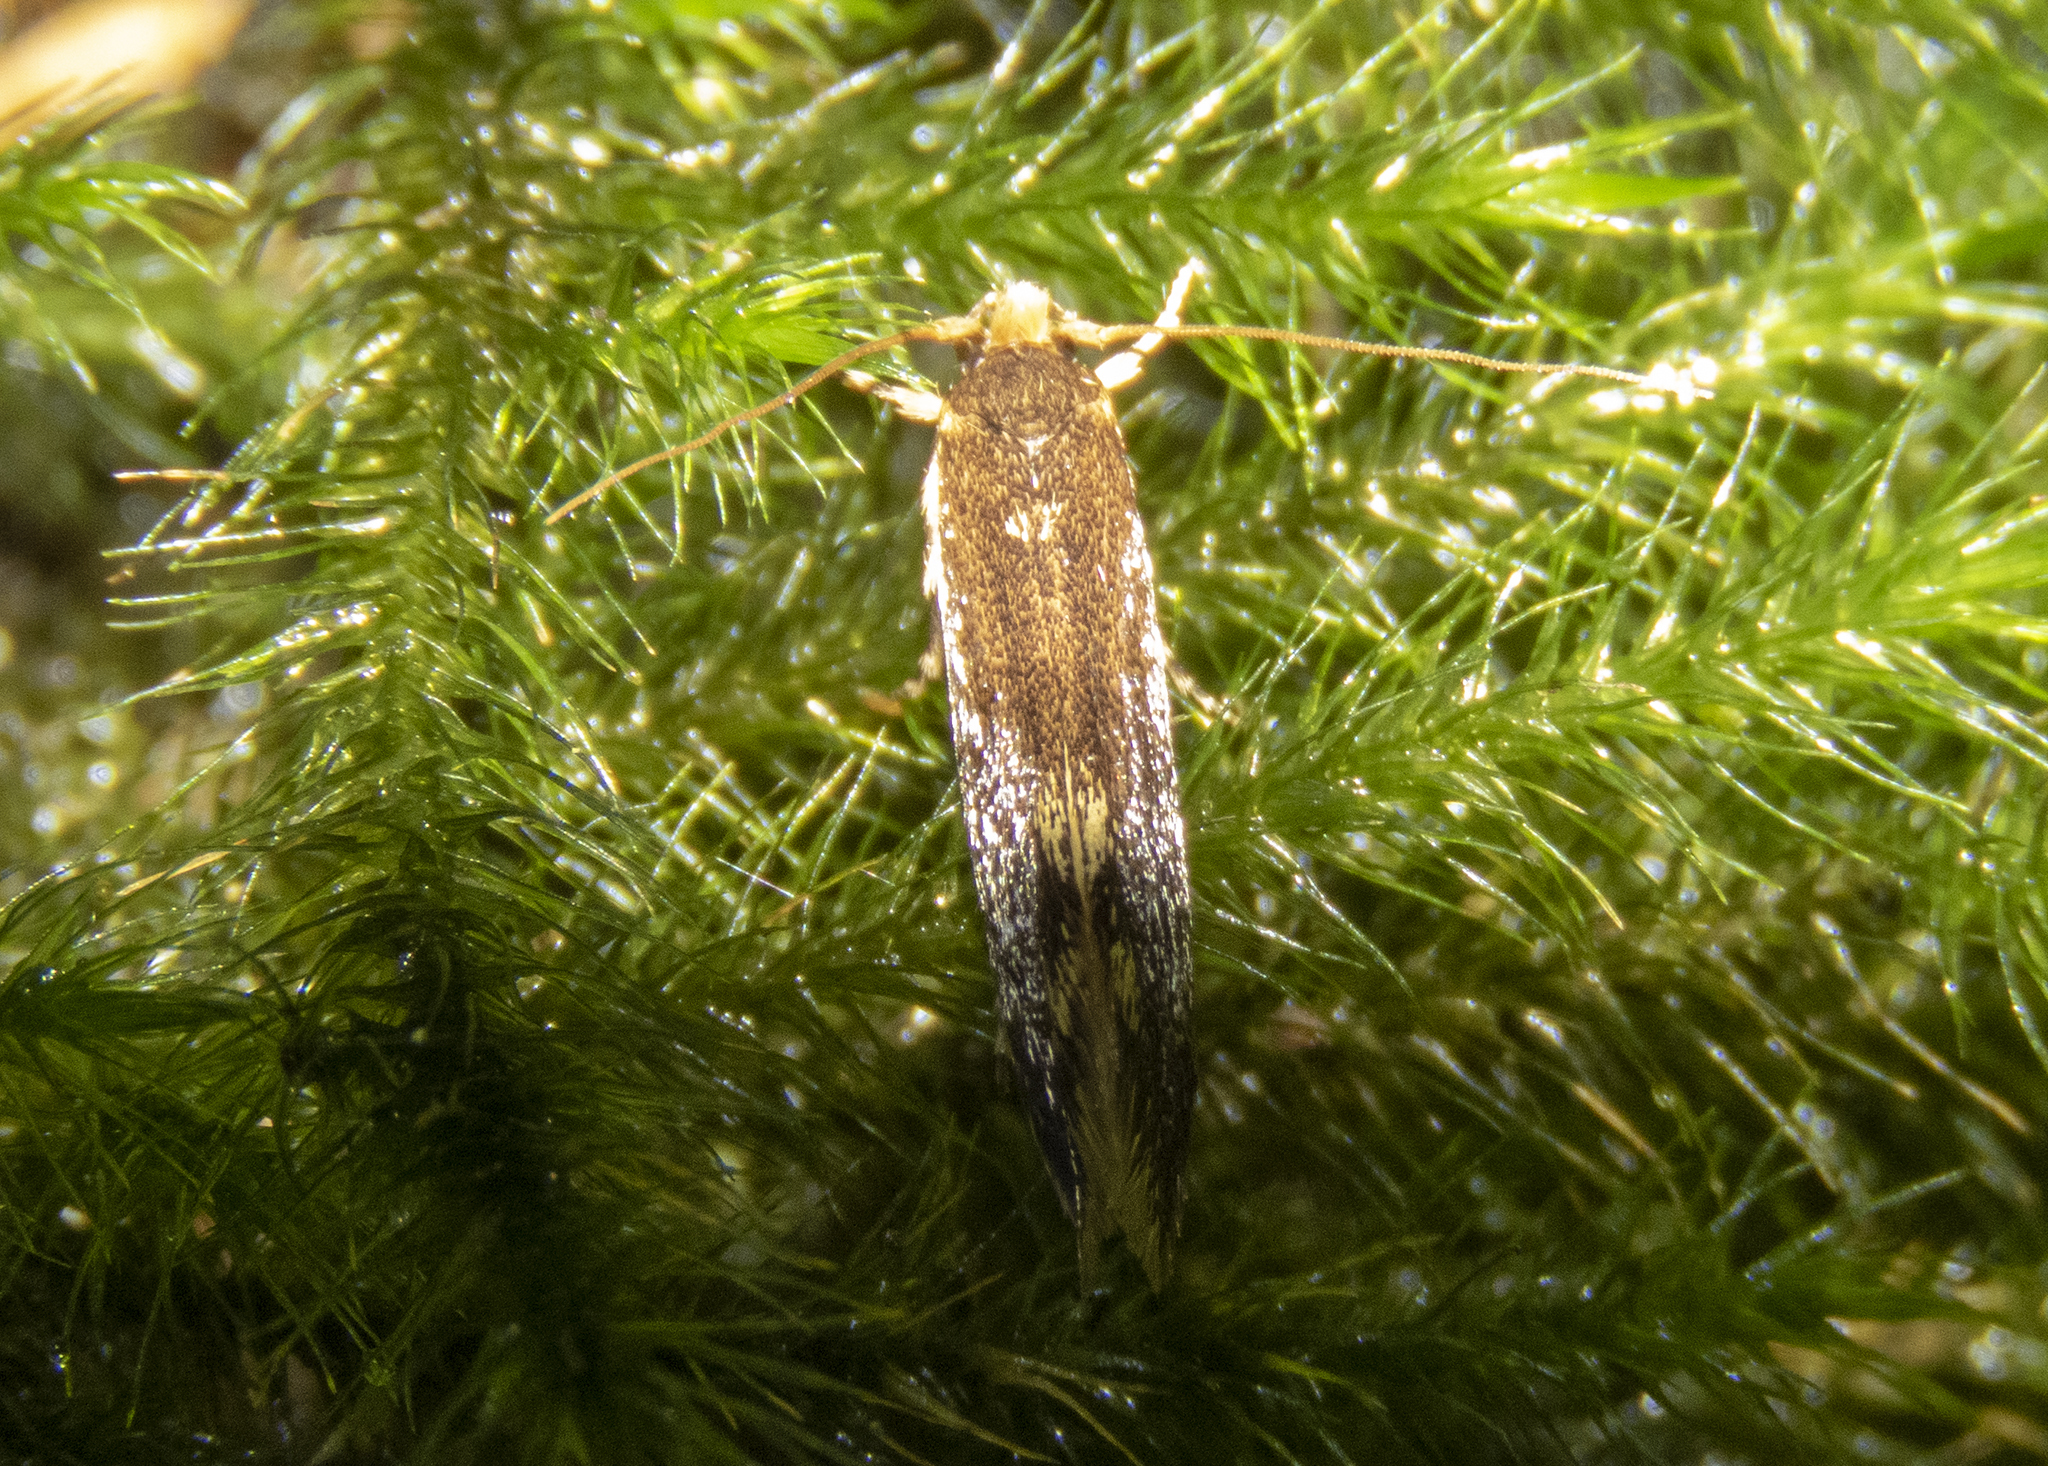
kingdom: Animalia
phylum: Arthropoda
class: Insecta
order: Lepidoptera
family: Tineidae
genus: Opogona
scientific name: Opogona omoscopa
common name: Moth
